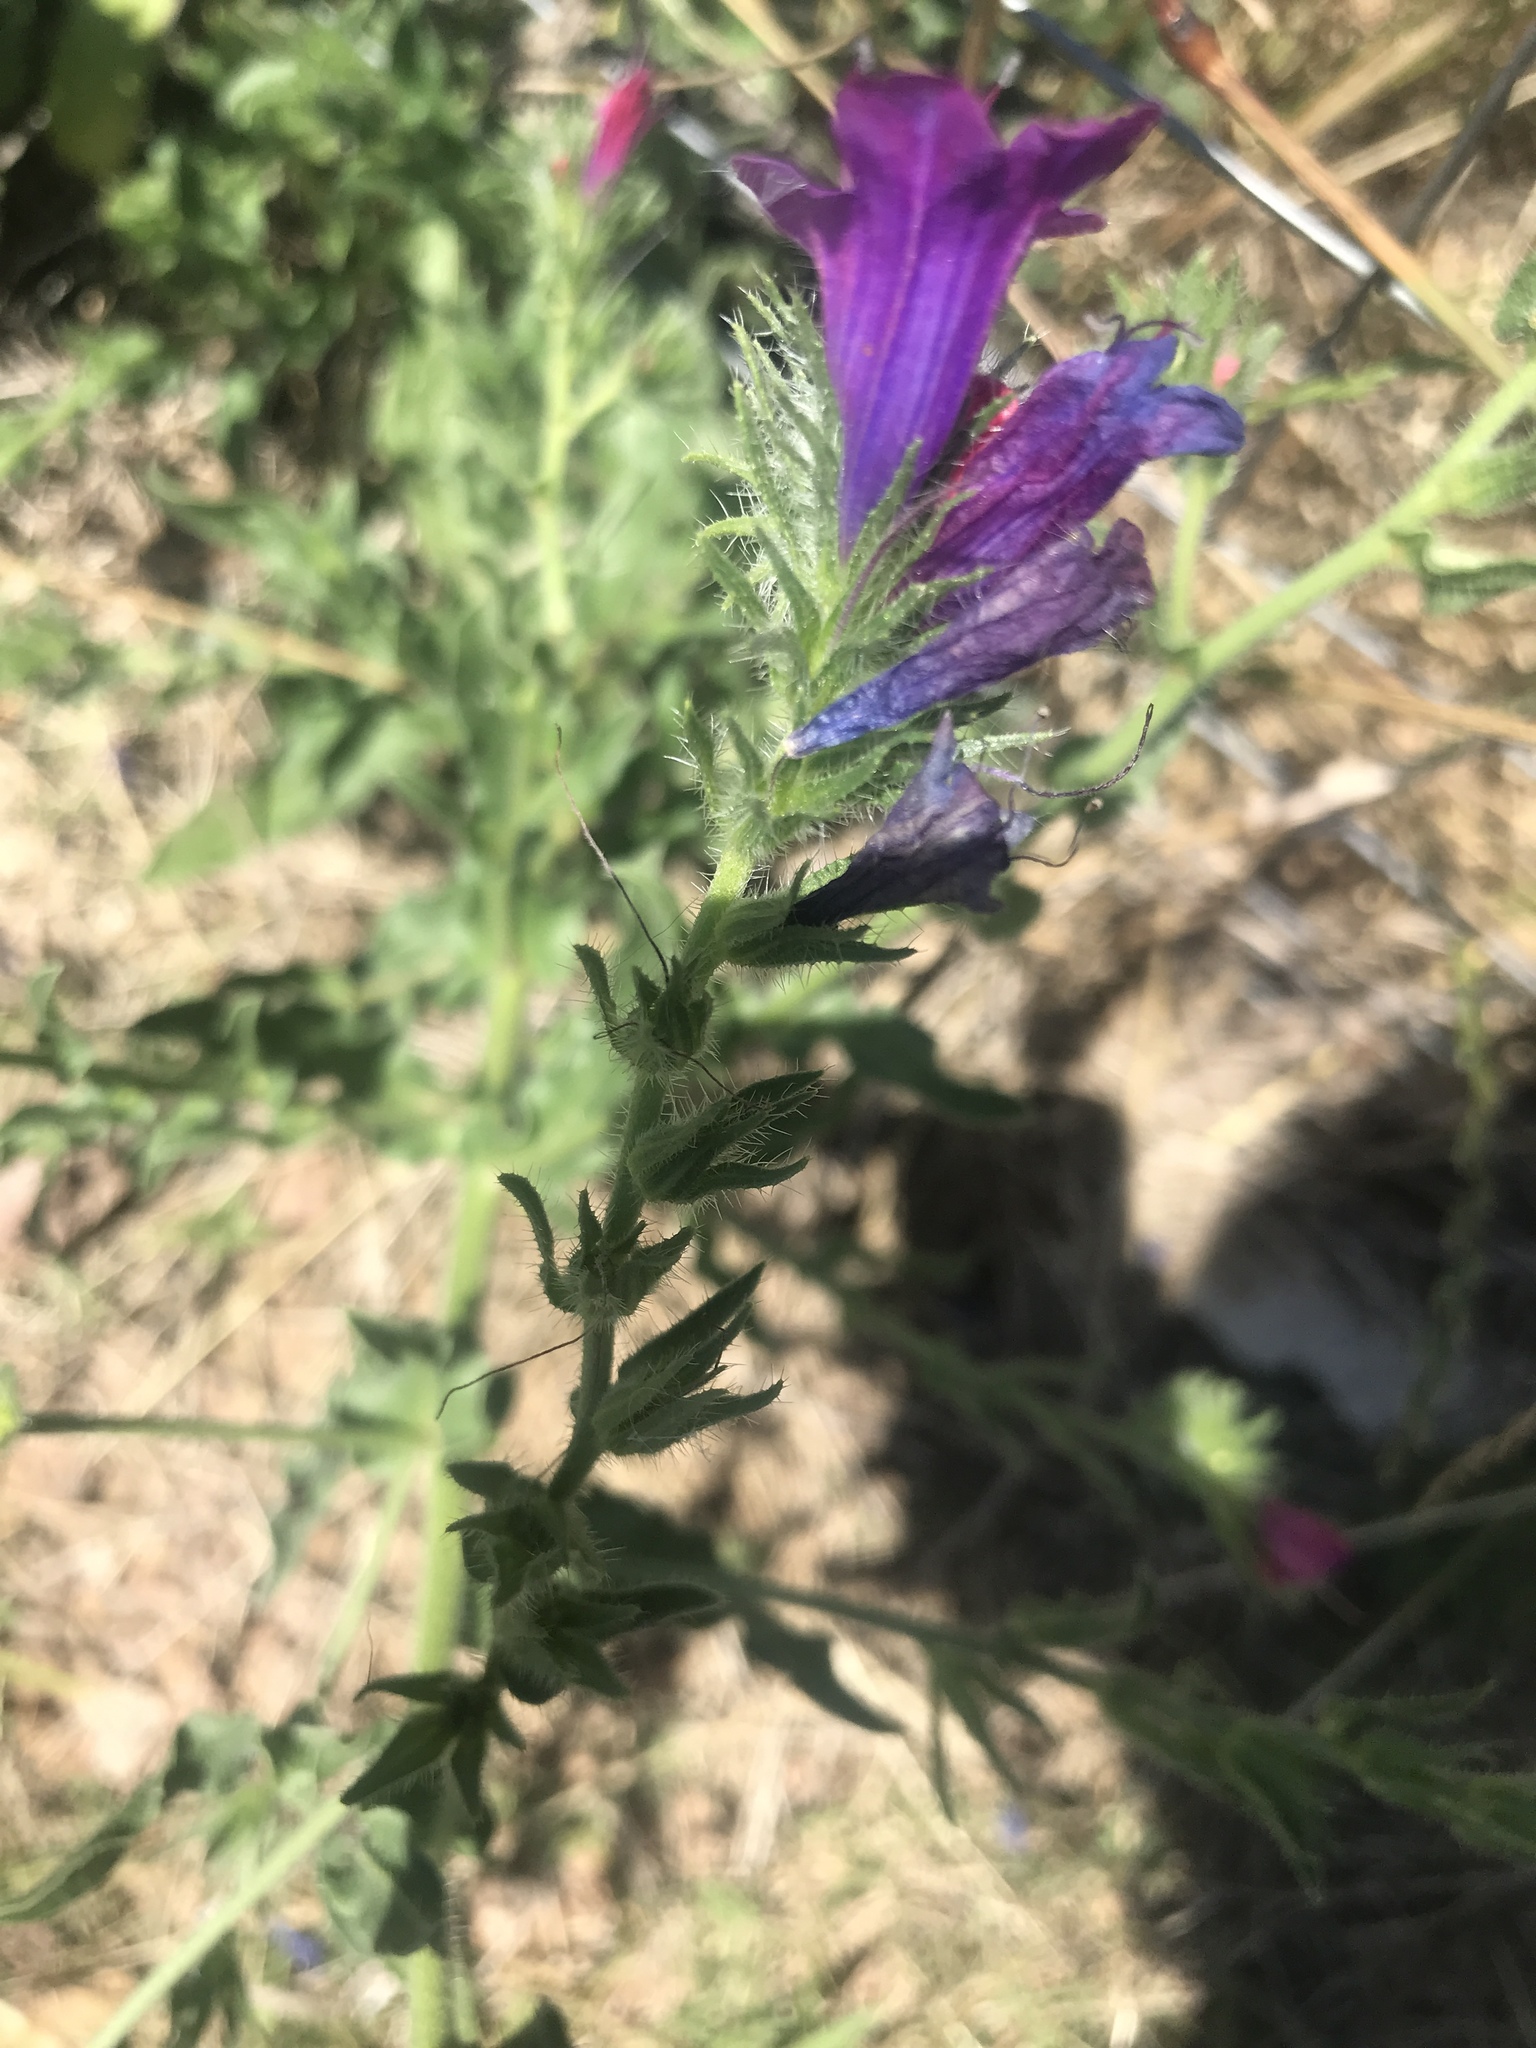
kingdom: Plantae
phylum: Tracheophyta
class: Magnoliopsida
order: Boraginales
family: Boraginaceae
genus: Echium
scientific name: Echium plantagineum
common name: Purple viper's-bugloss
